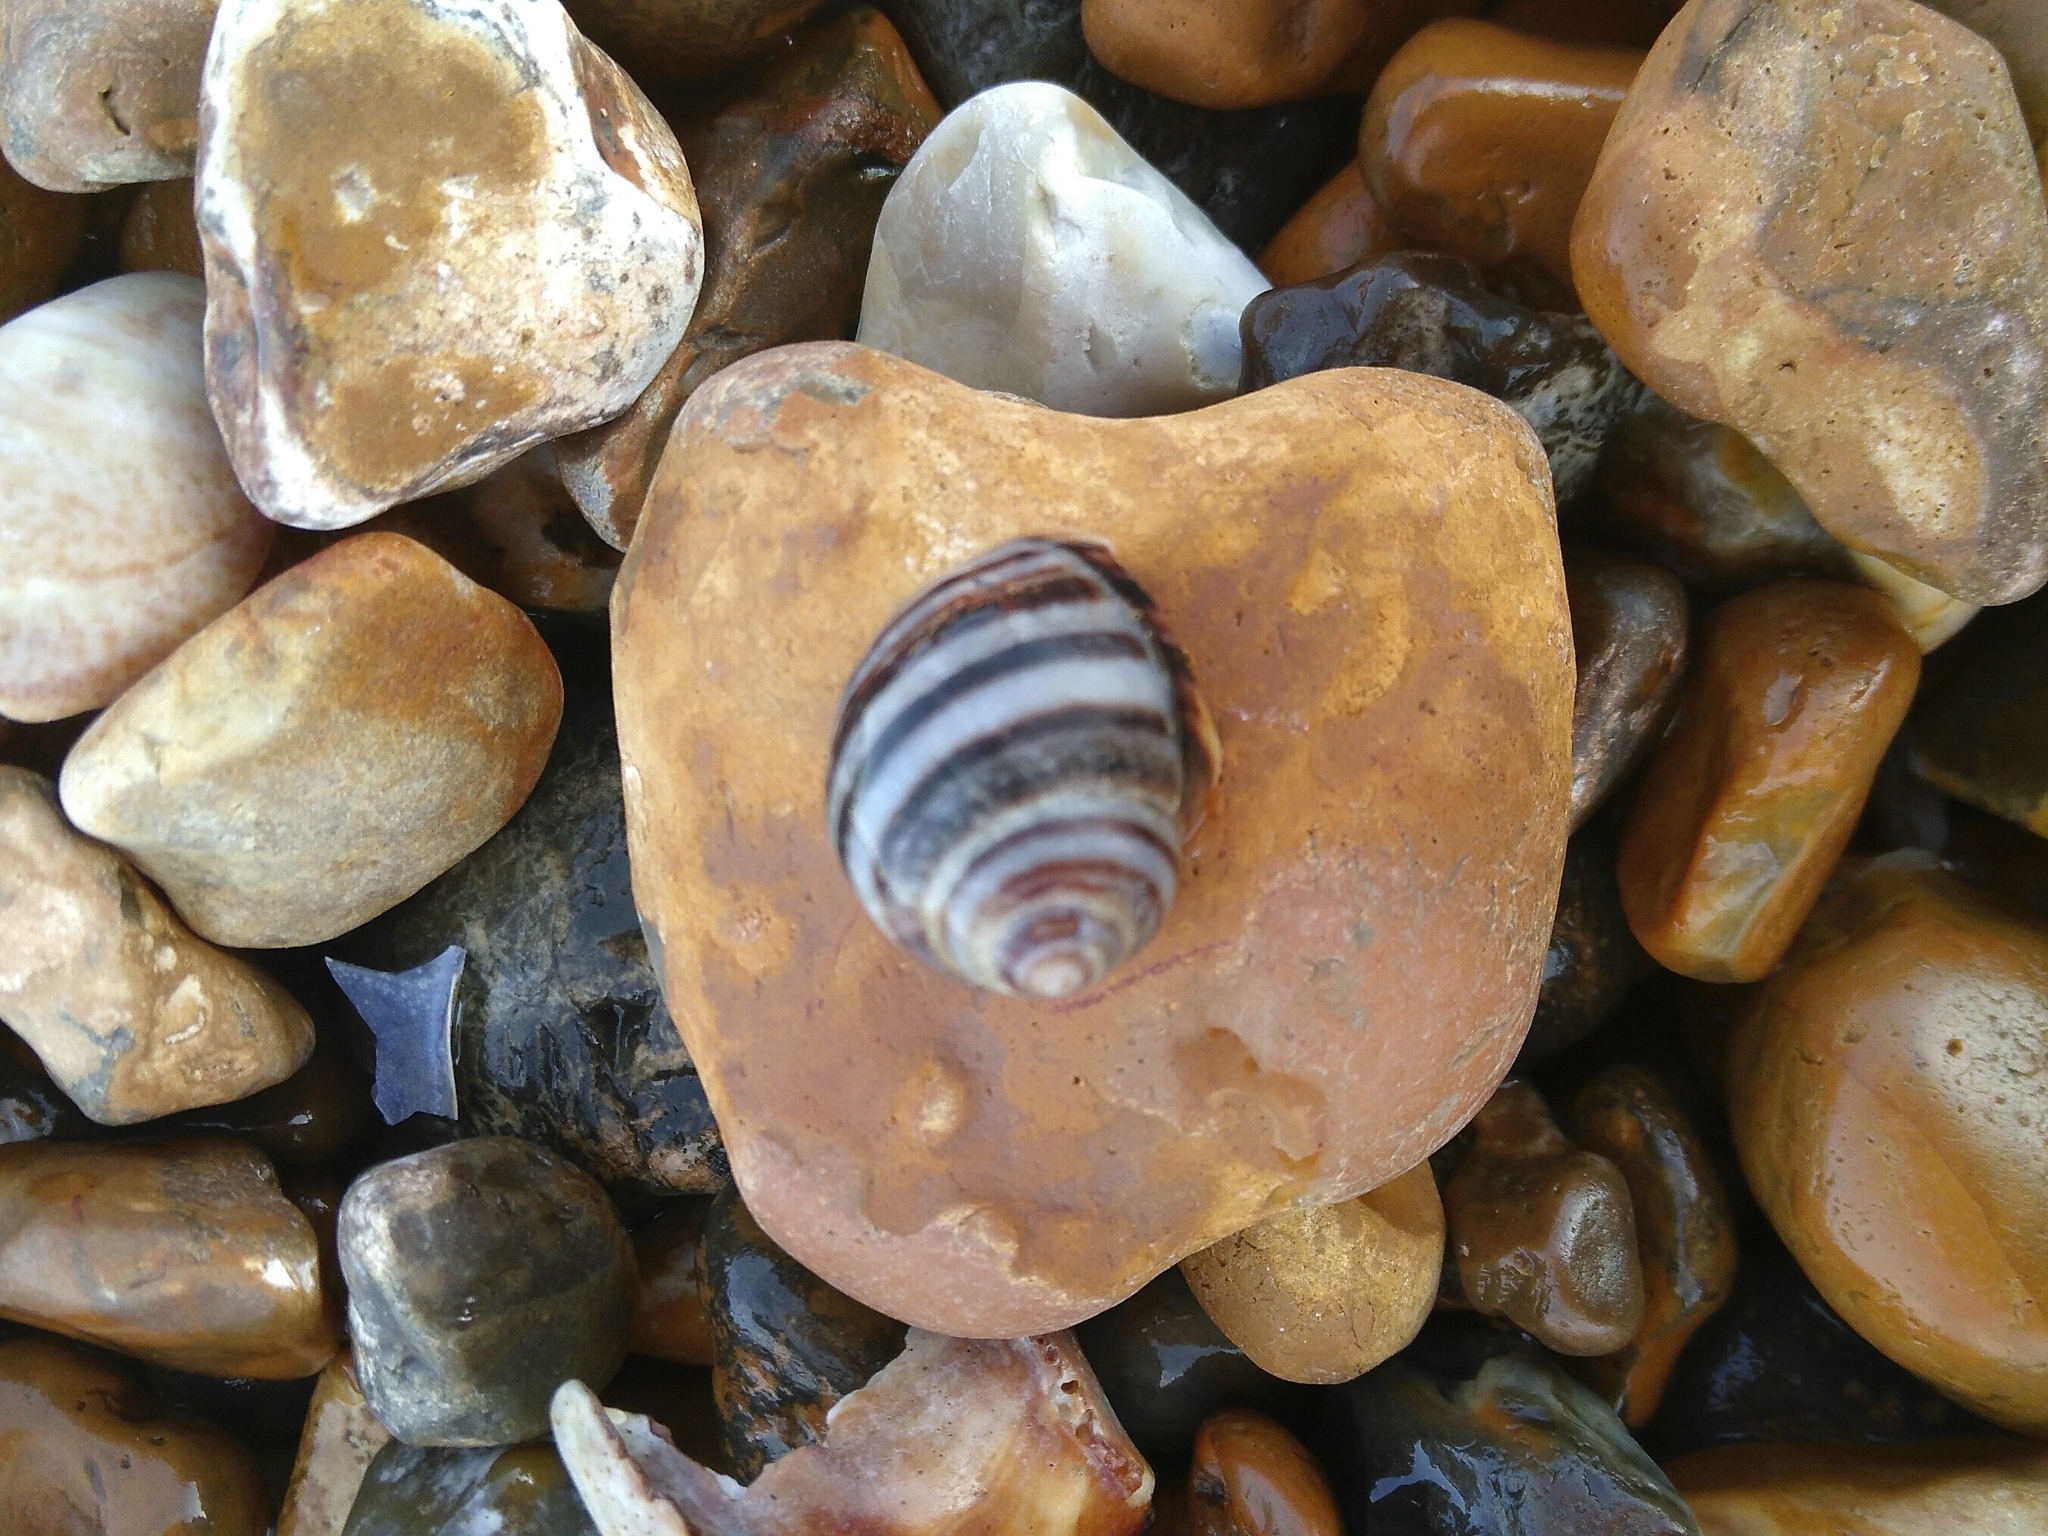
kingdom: Animalia
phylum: Mollusca
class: Gastropoda
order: Littorinimorpha
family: Littorinidae
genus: Littorina
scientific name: Littorina littorea
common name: Common periwinkle
